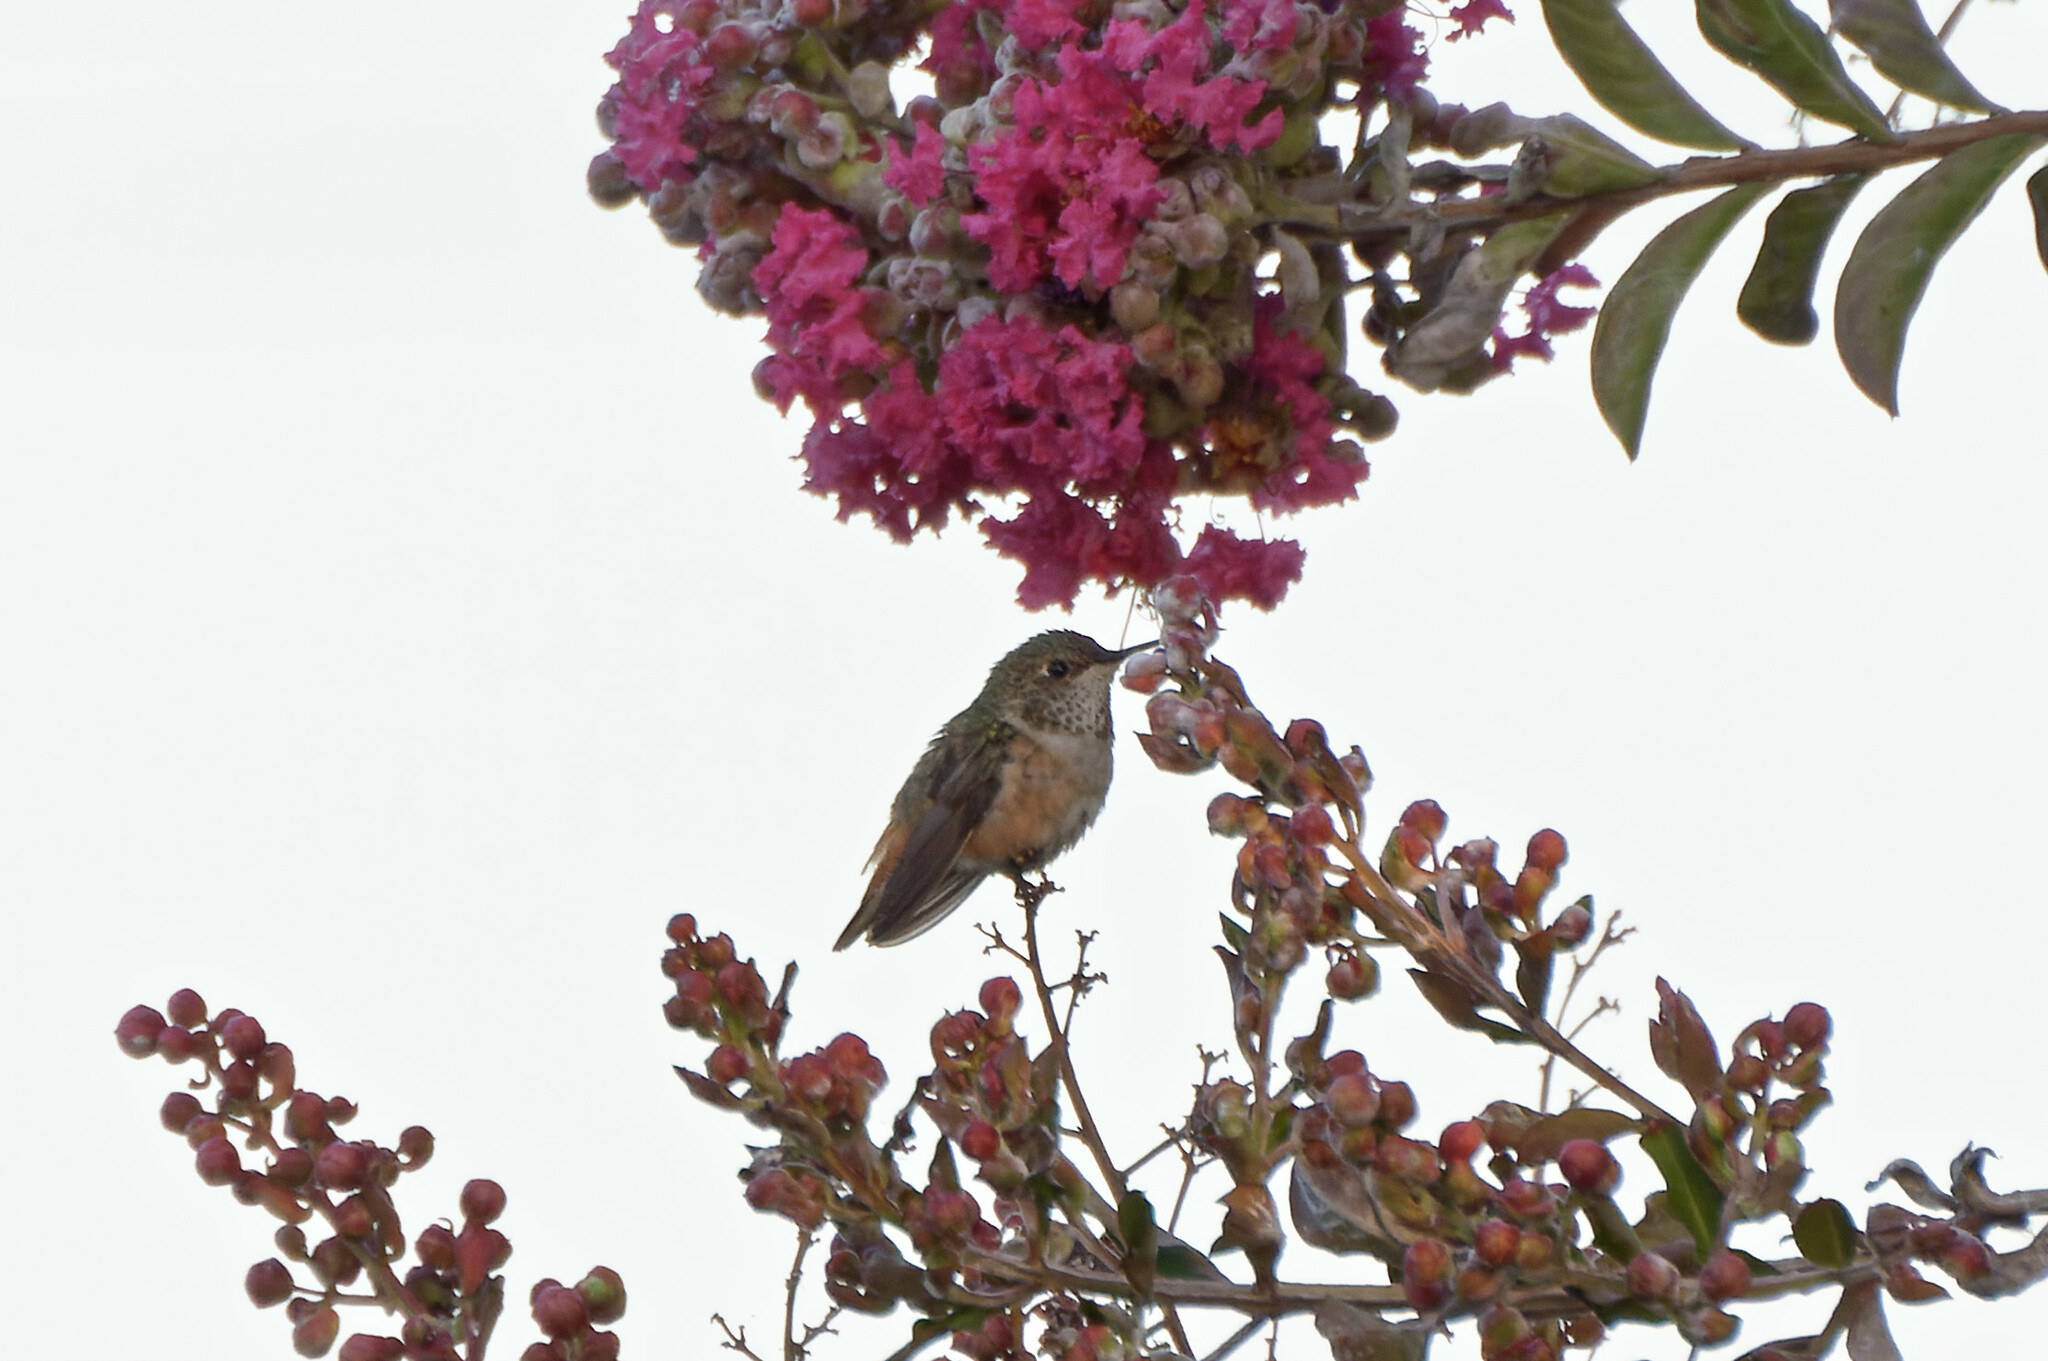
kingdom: Animalia
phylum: Chordata
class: Aves
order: Apodiformes
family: Trochilidae
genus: Selasphorus
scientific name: Selasphorus sasin
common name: Allen's hummingbird
